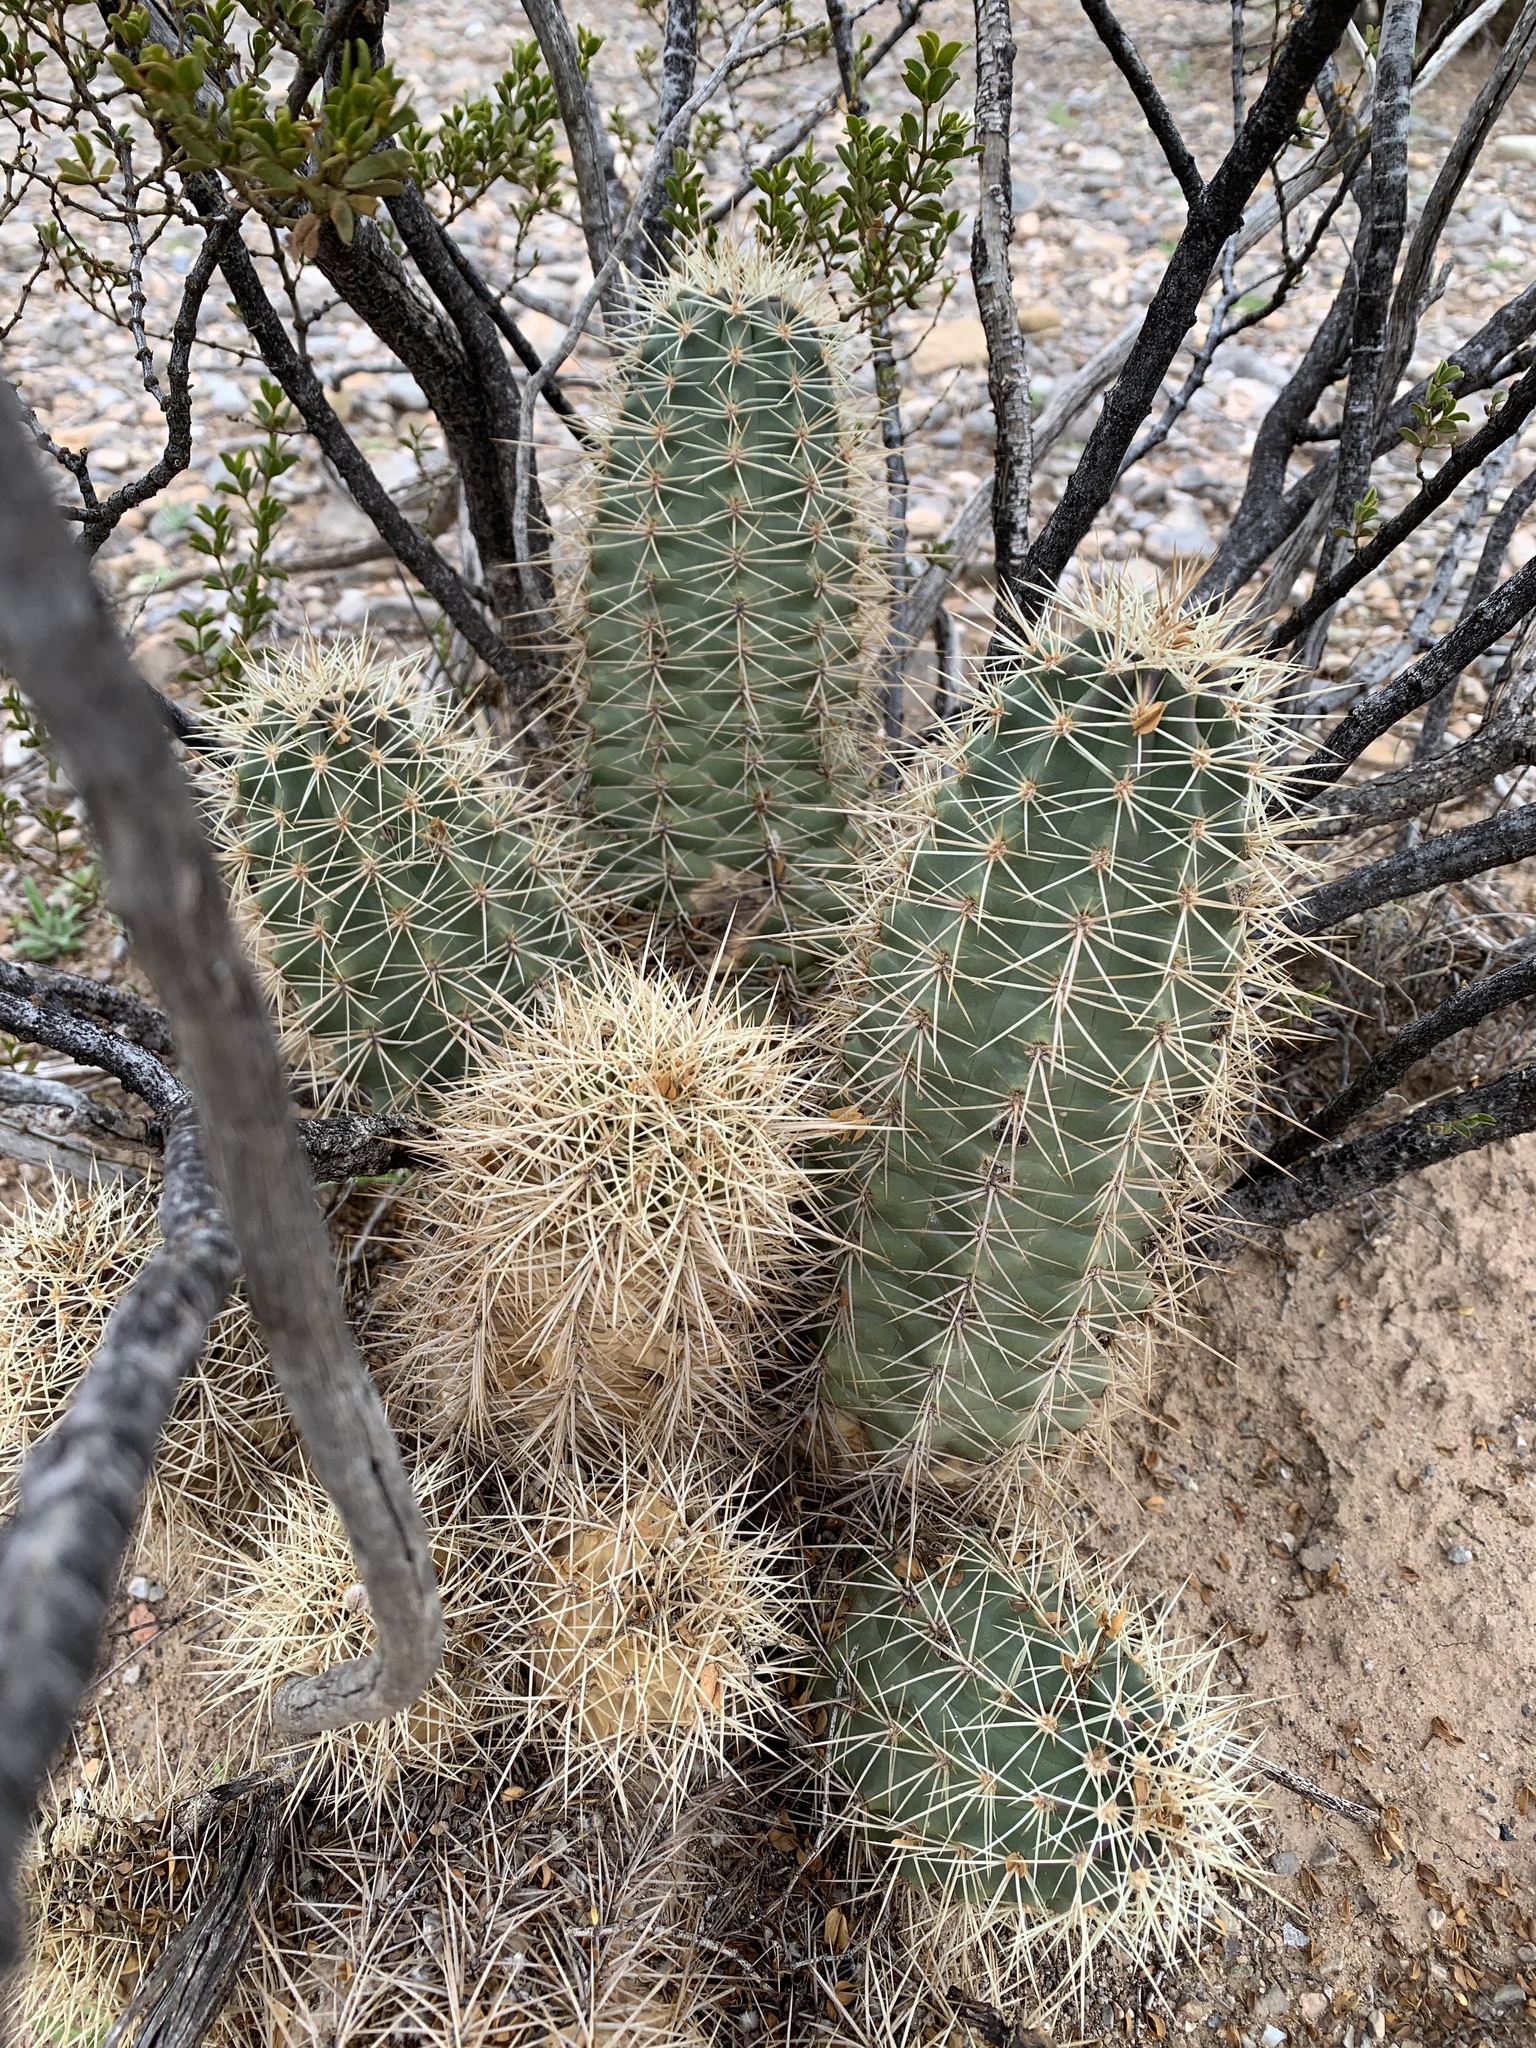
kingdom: Plantae
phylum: Tracheophyta
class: Magnoliopsida
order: Caryophyllales
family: Cactaceae
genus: Echinocereus
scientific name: Echinocereus coccineus
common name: Scarlet hedgehog cactus
